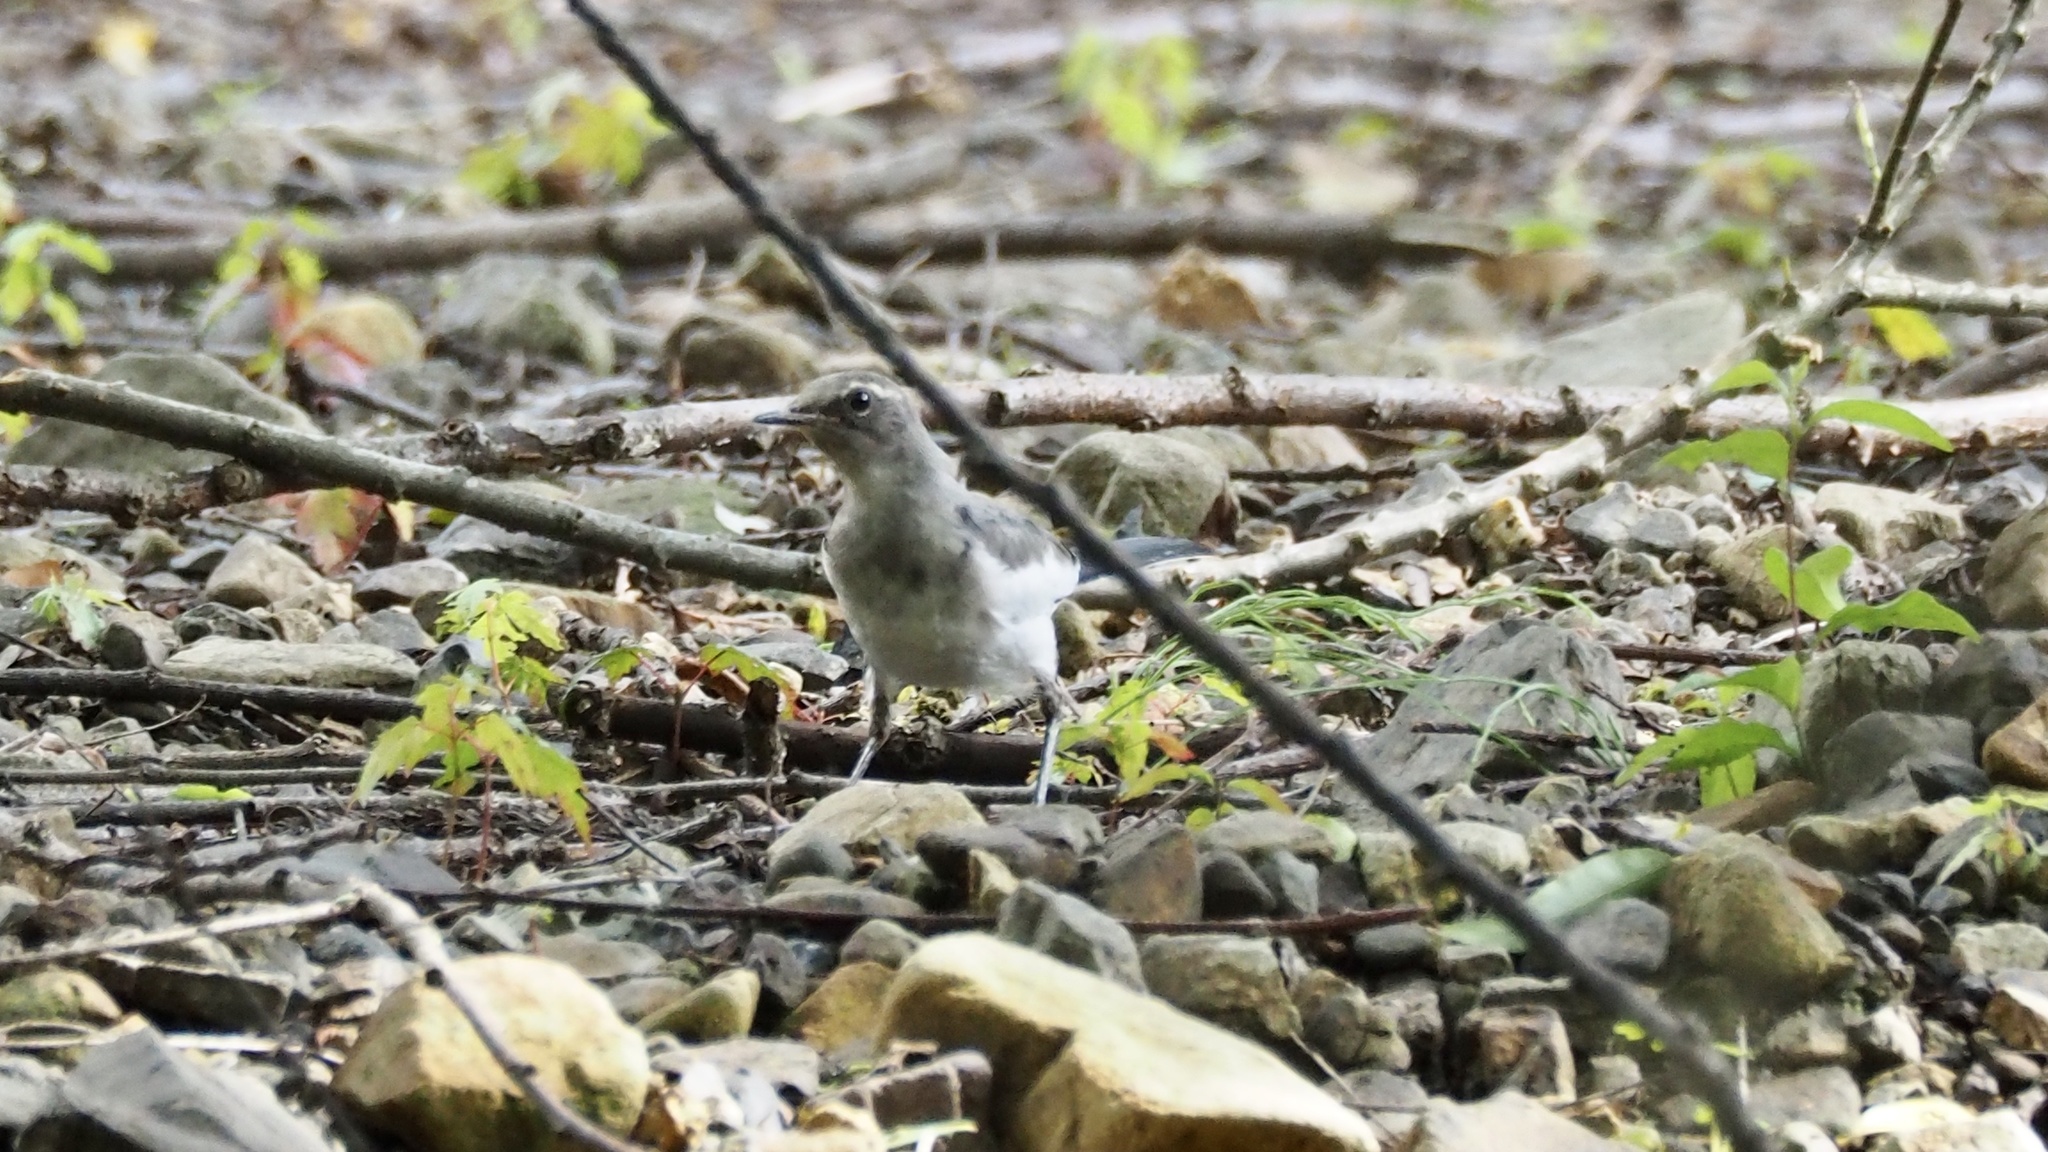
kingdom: Animalia
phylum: Chordata
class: Aves
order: Passeriformes
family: Motacillidae
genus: Motacilla
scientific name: Motacilla alba
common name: White wagtail
